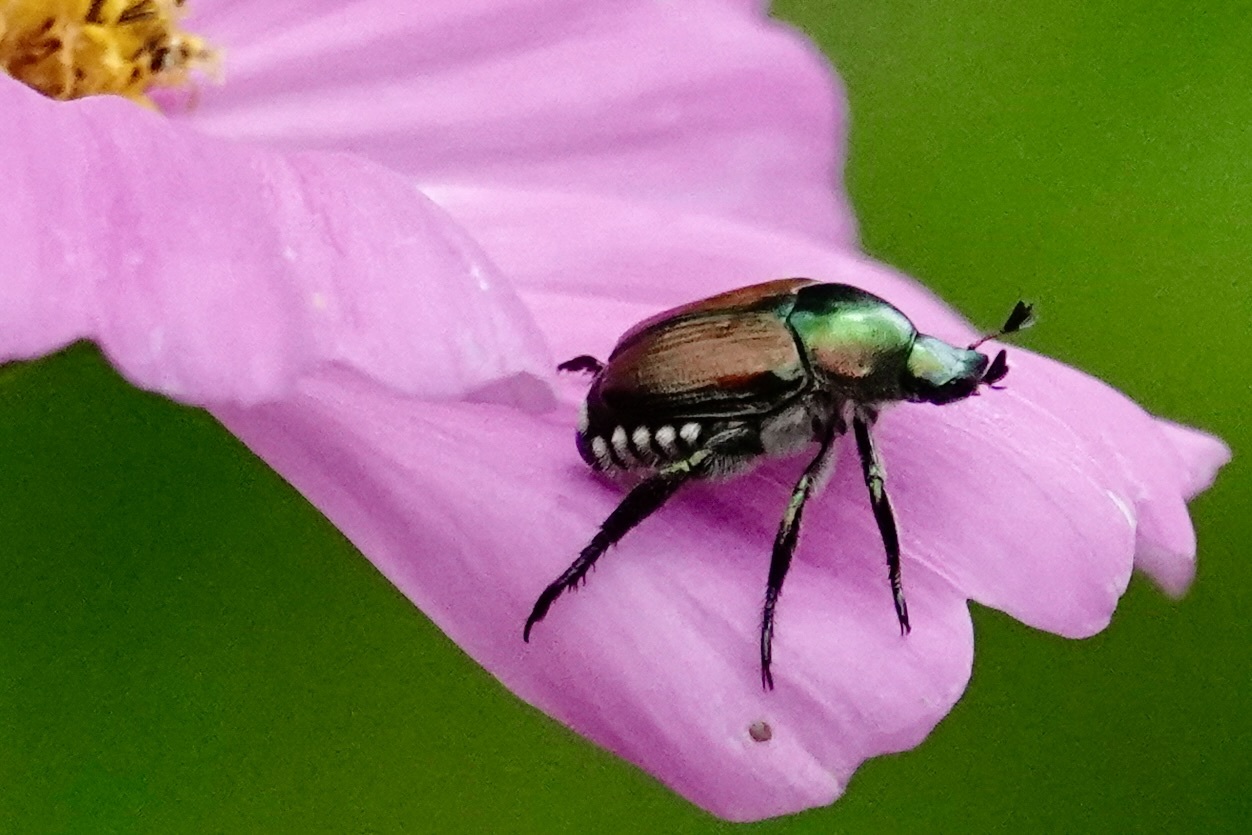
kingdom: Animalia
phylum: Arthropoda
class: Insecta
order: Coleoptera
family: Scarabaeidae
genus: Popillia
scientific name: Popillia japonica
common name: Japanese beetle
